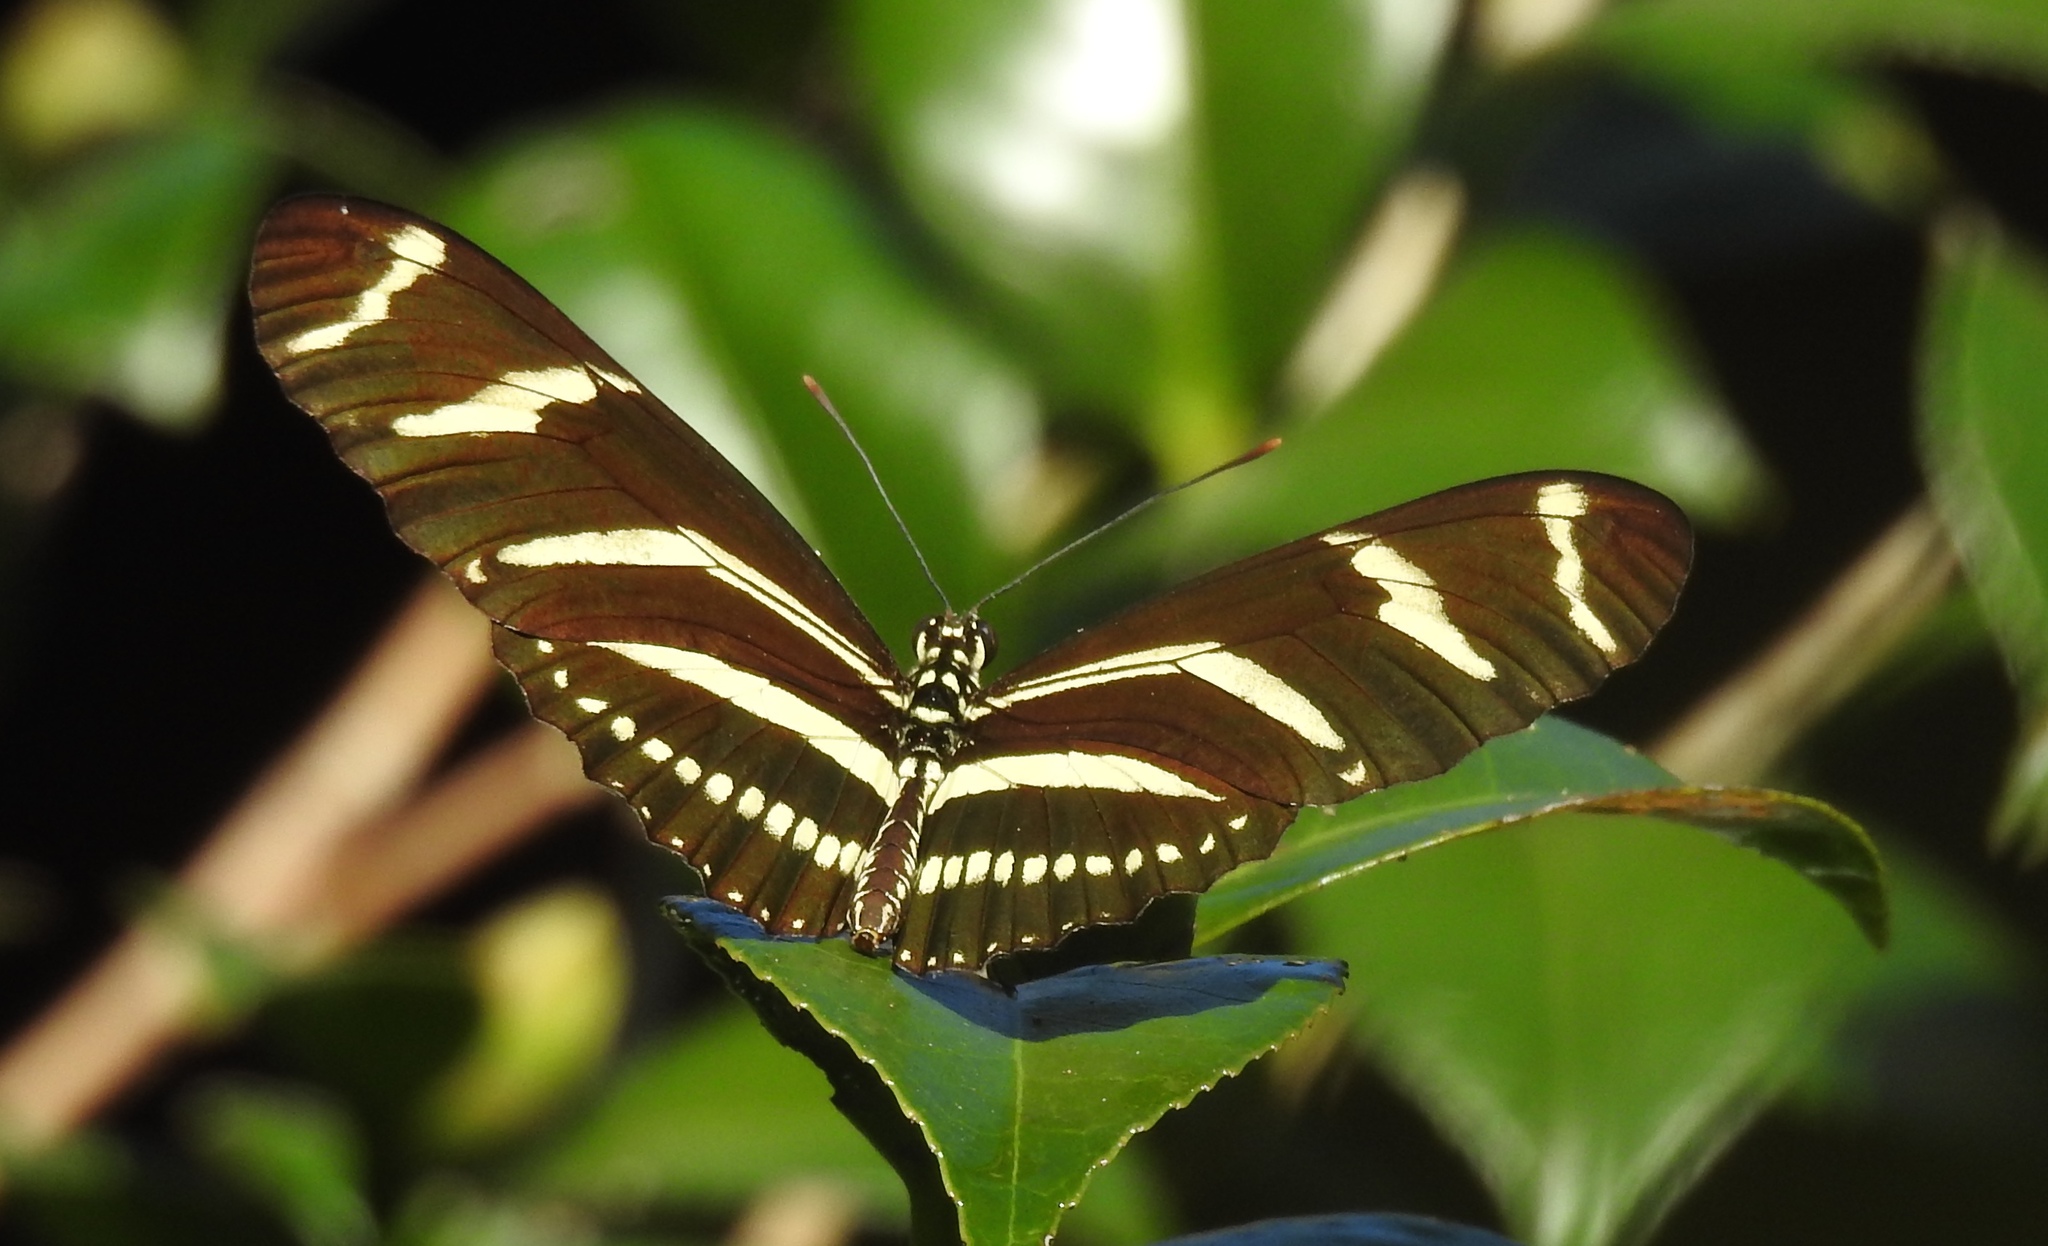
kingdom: Animalia
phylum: Arthropoda
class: Insecta
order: Lepidoptera
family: Nymphalidae
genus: Heliconius
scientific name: Heliconius charithonia
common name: Zebra long wing
